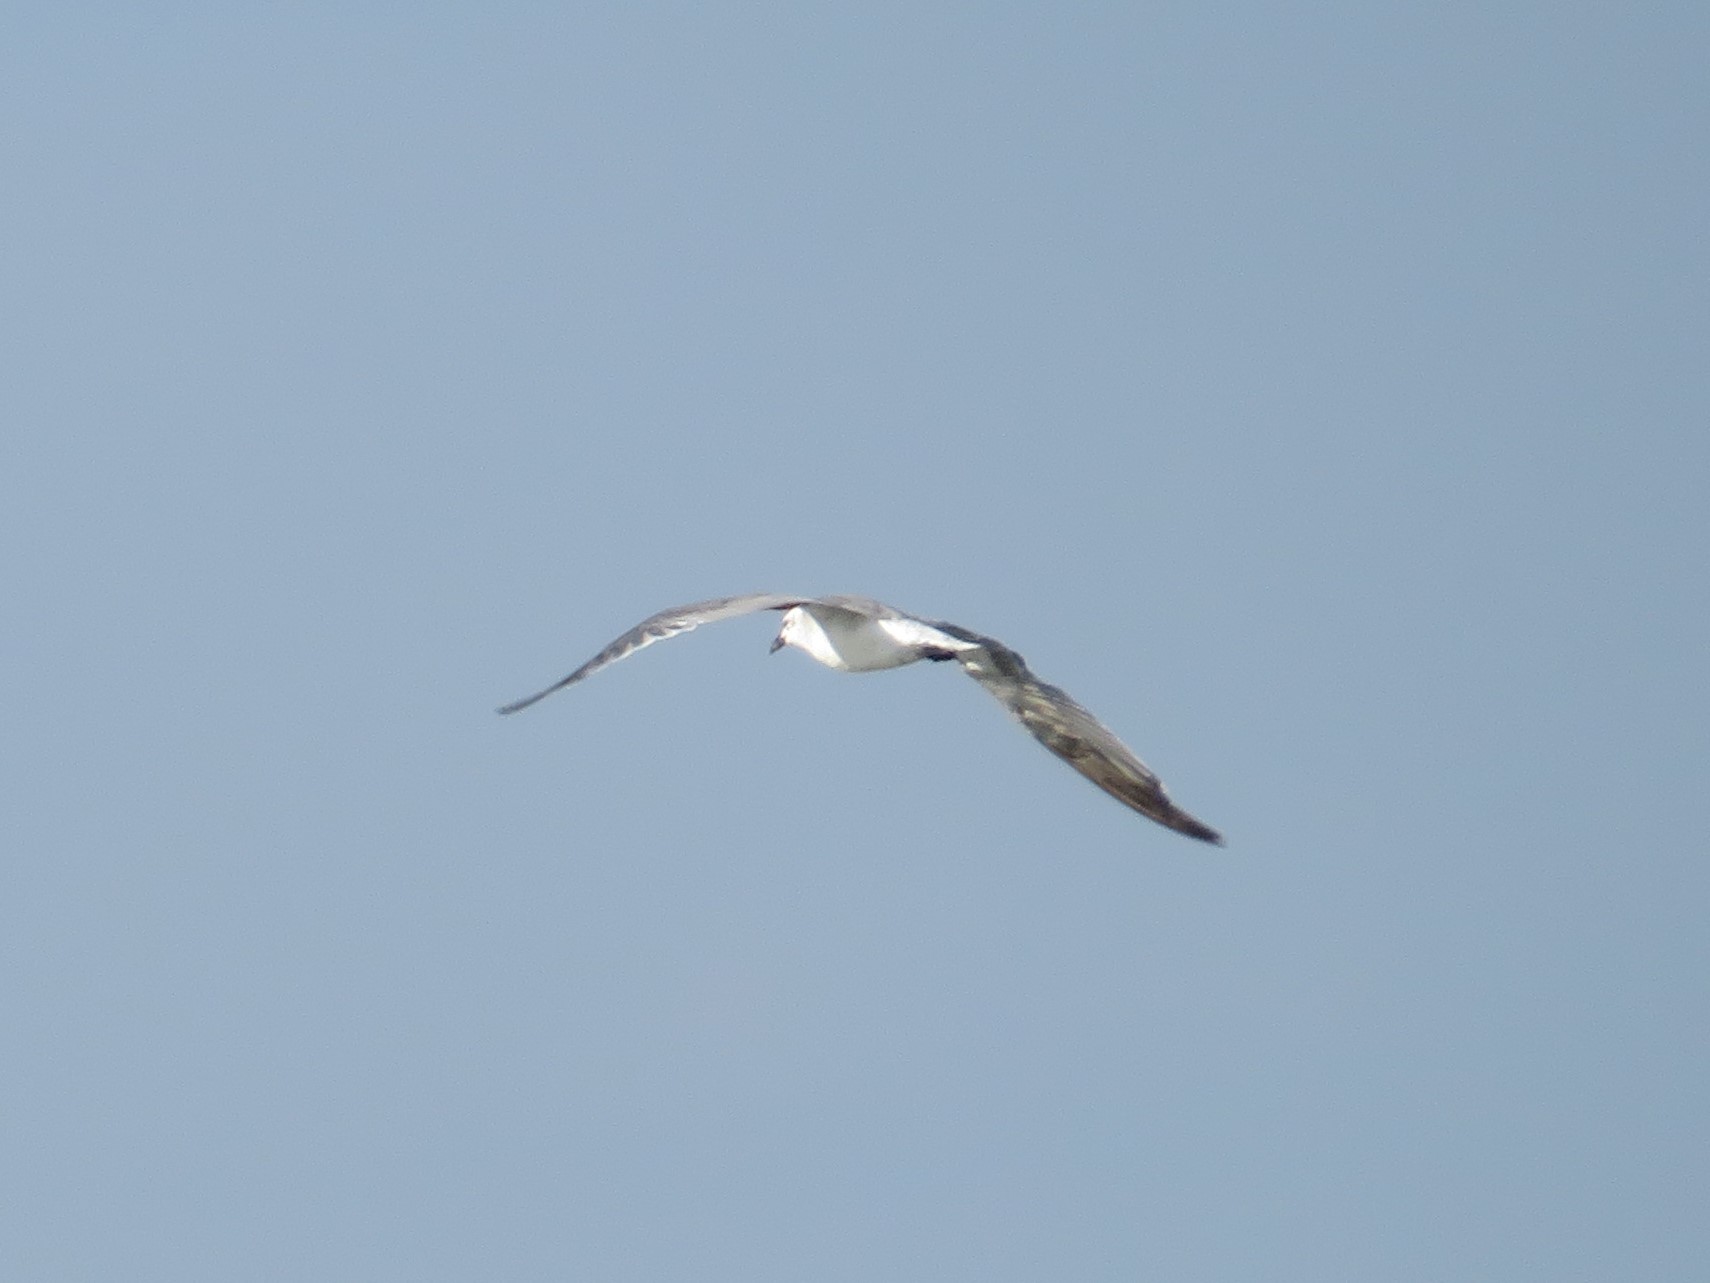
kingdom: Animalia
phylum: Chordata
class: Aves
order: Charadriiformes
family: Laridae
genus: Leucophaeus
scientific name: Leucophaeus atricilla
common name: Laughing gull
